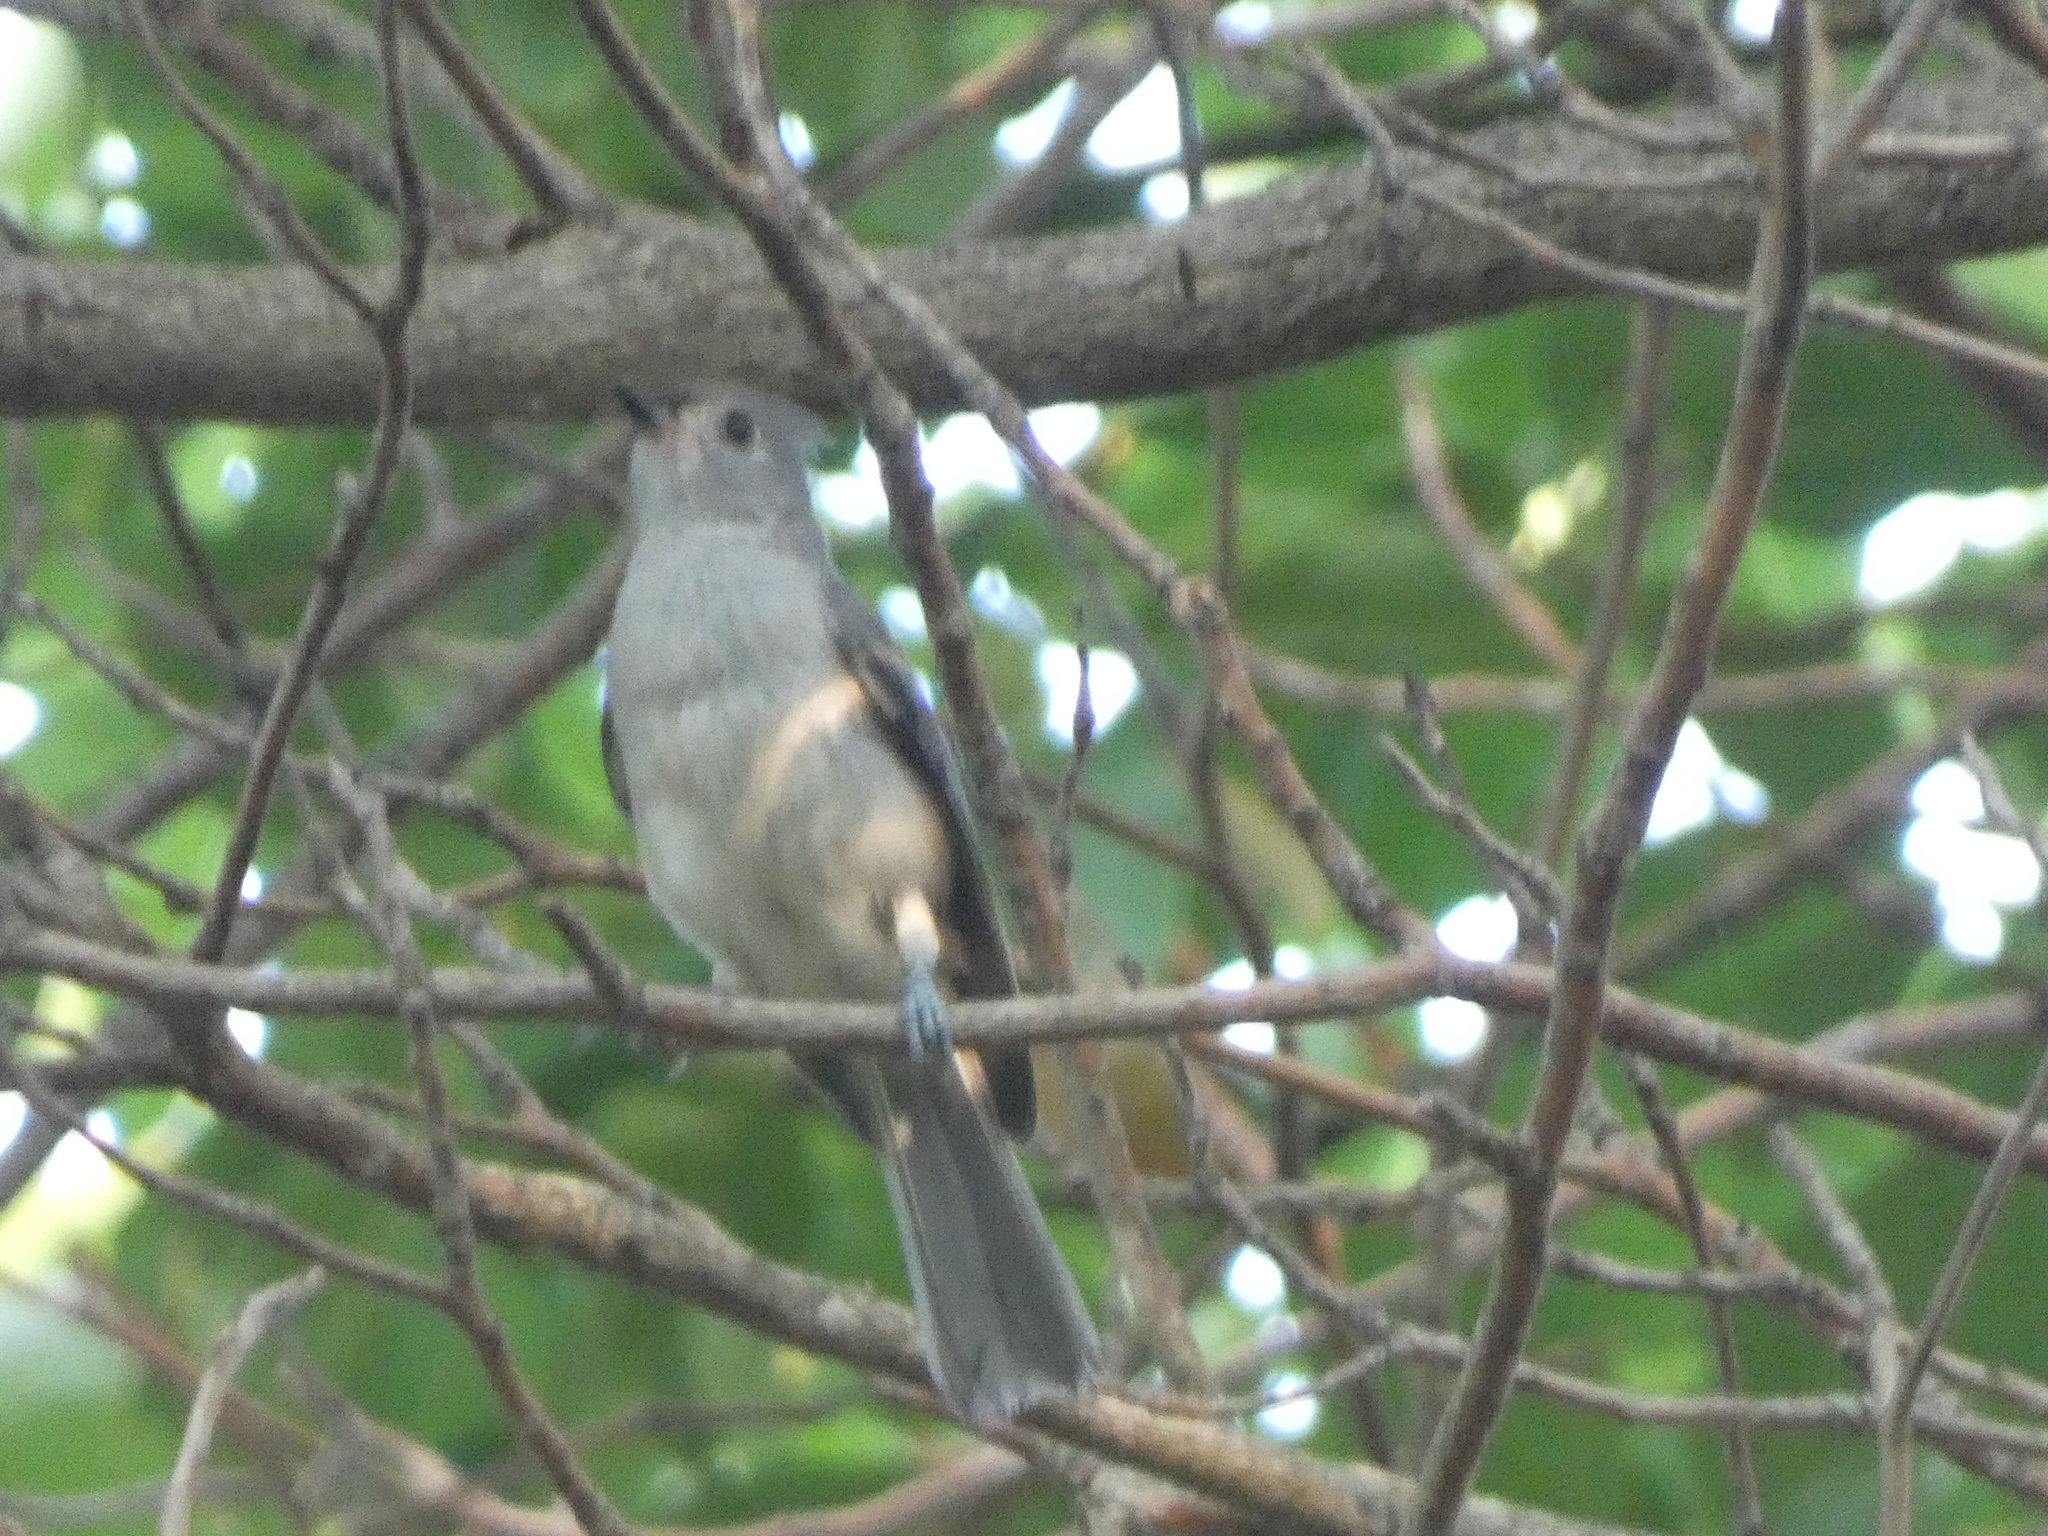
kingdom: Animalia
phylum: Chordata
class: Aves
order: Passeriformes
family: Paridae
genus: Baeolophus
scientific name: Baeolophus bicolor
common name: Tufted titmouse
